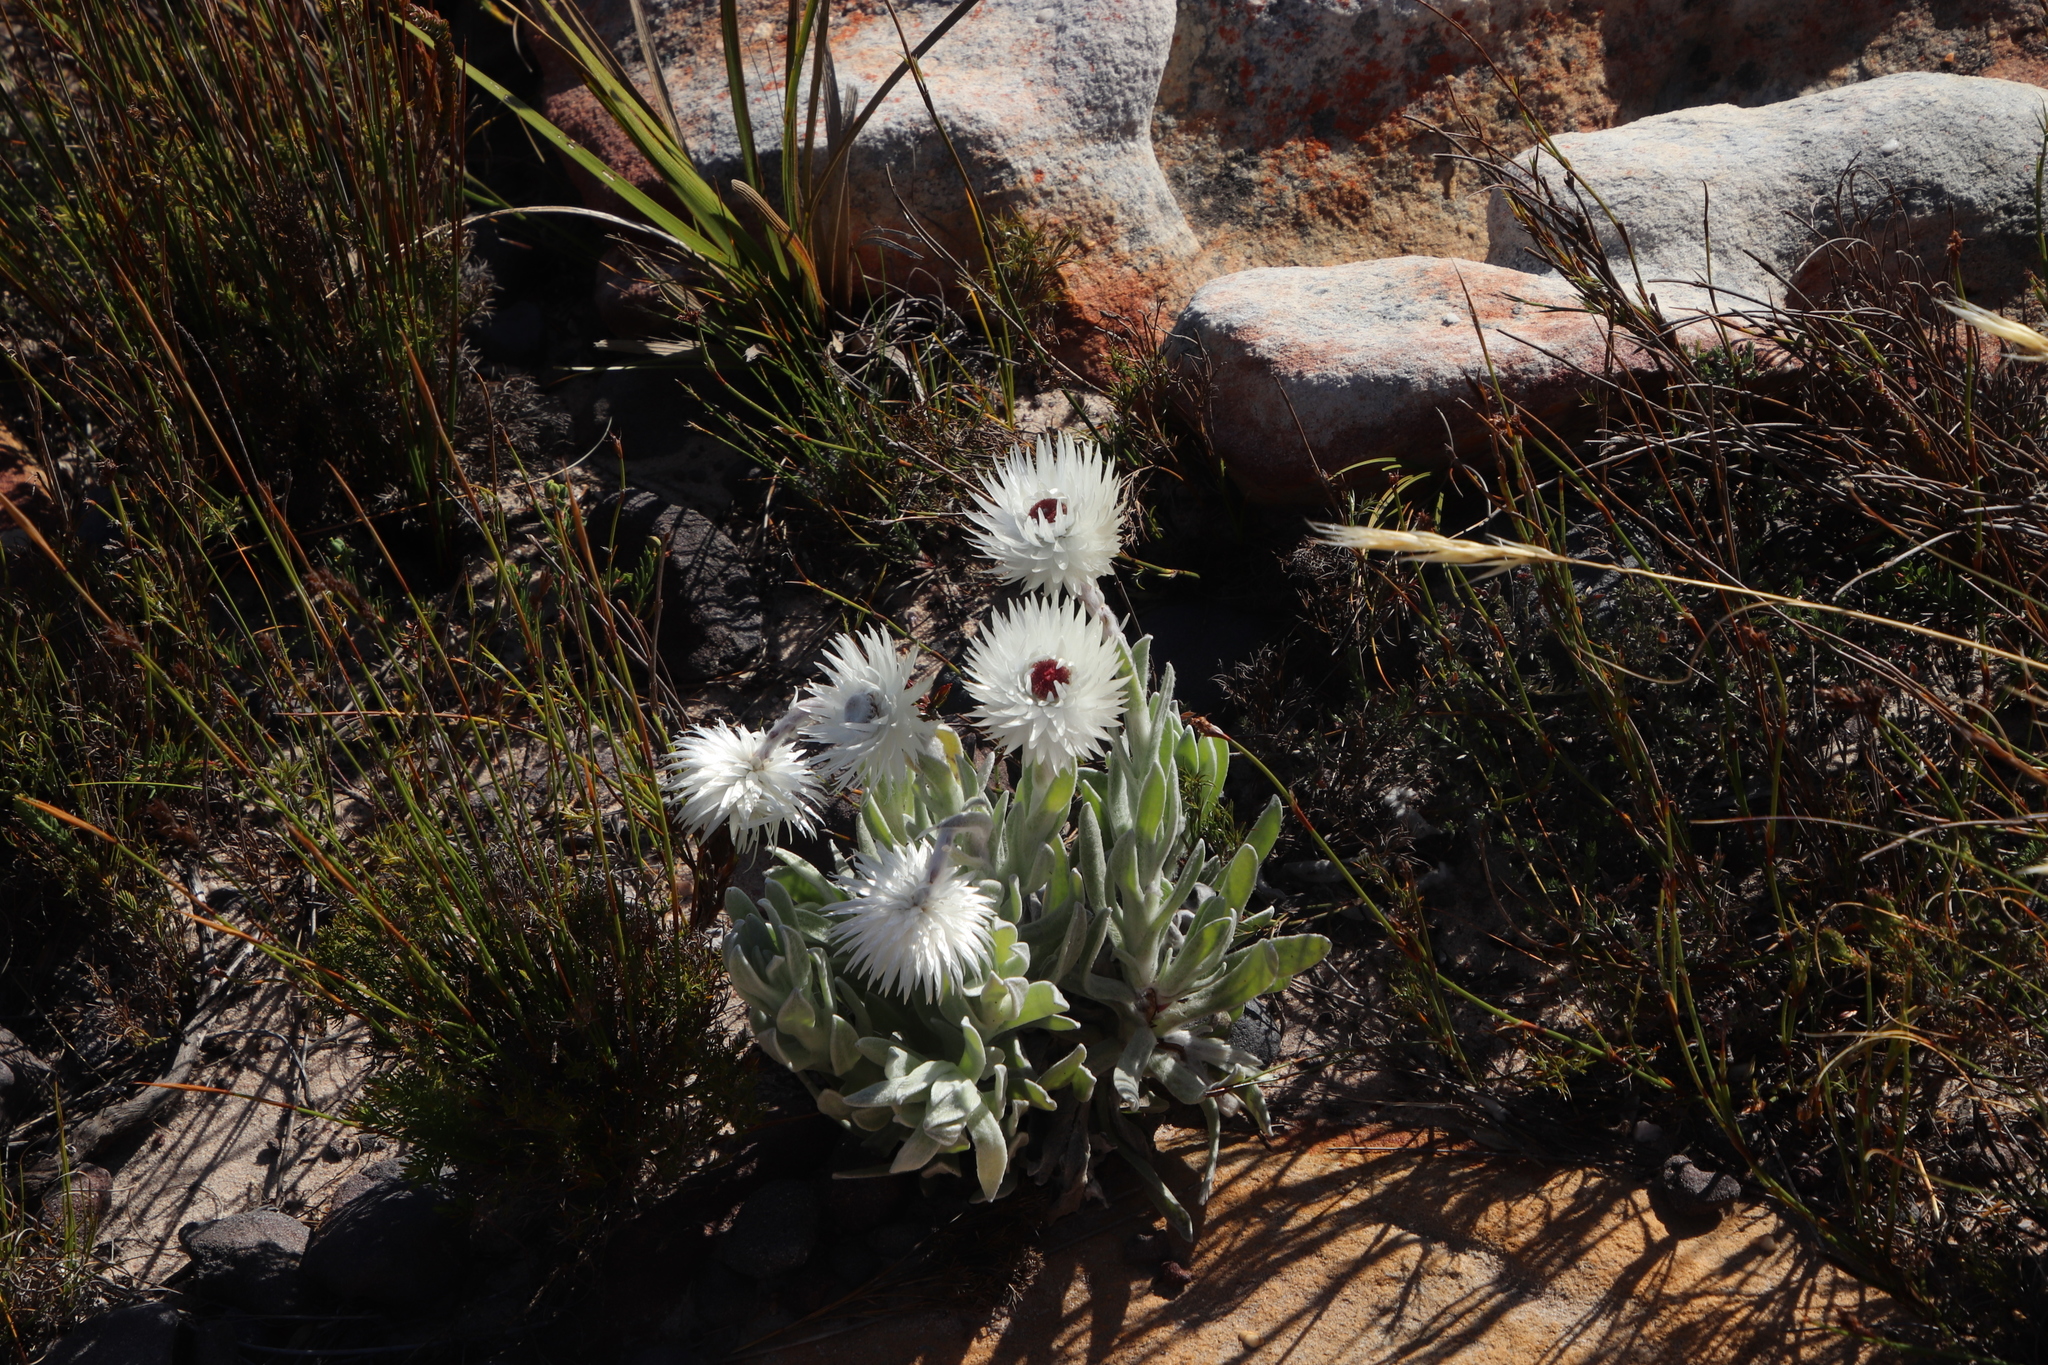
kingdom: Plantae
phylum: Tracheophyta
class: Magnoliopsida
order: Asterales
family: Asteraceae
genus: Syncarpha
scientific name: Syncarpha vestita
